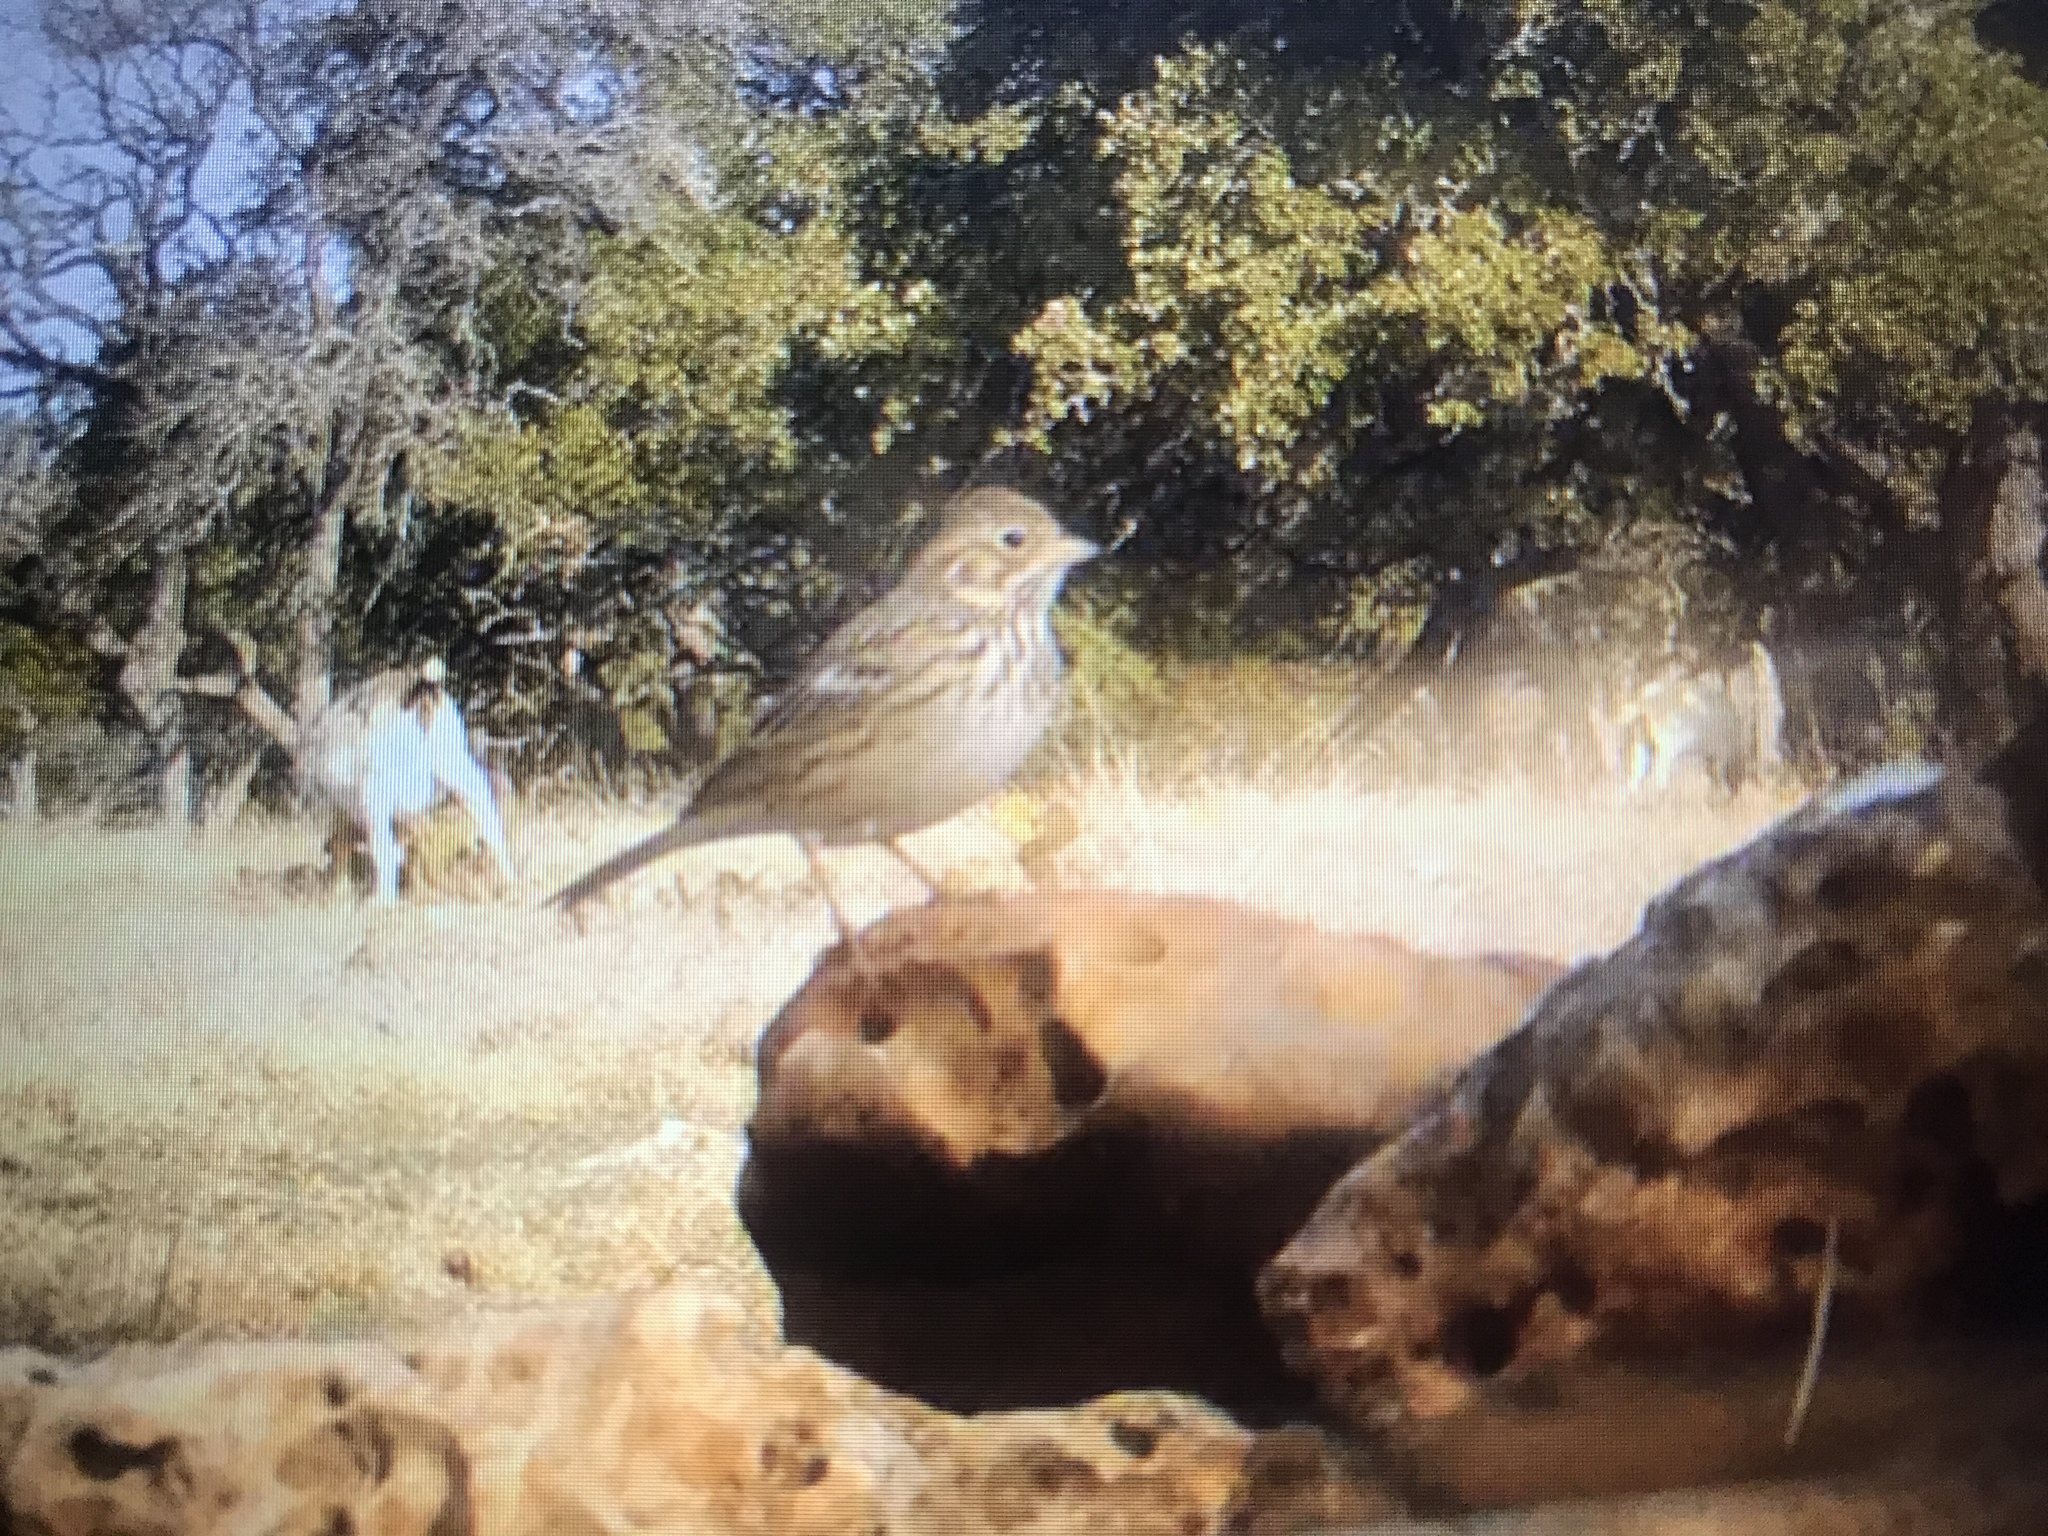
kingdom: Animalia
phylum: Chordata
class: Aves
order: Passeriformes
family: Passerellidae
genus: Pooecetes
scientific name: Pooecetes gramineus
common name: Vesper sparrow
